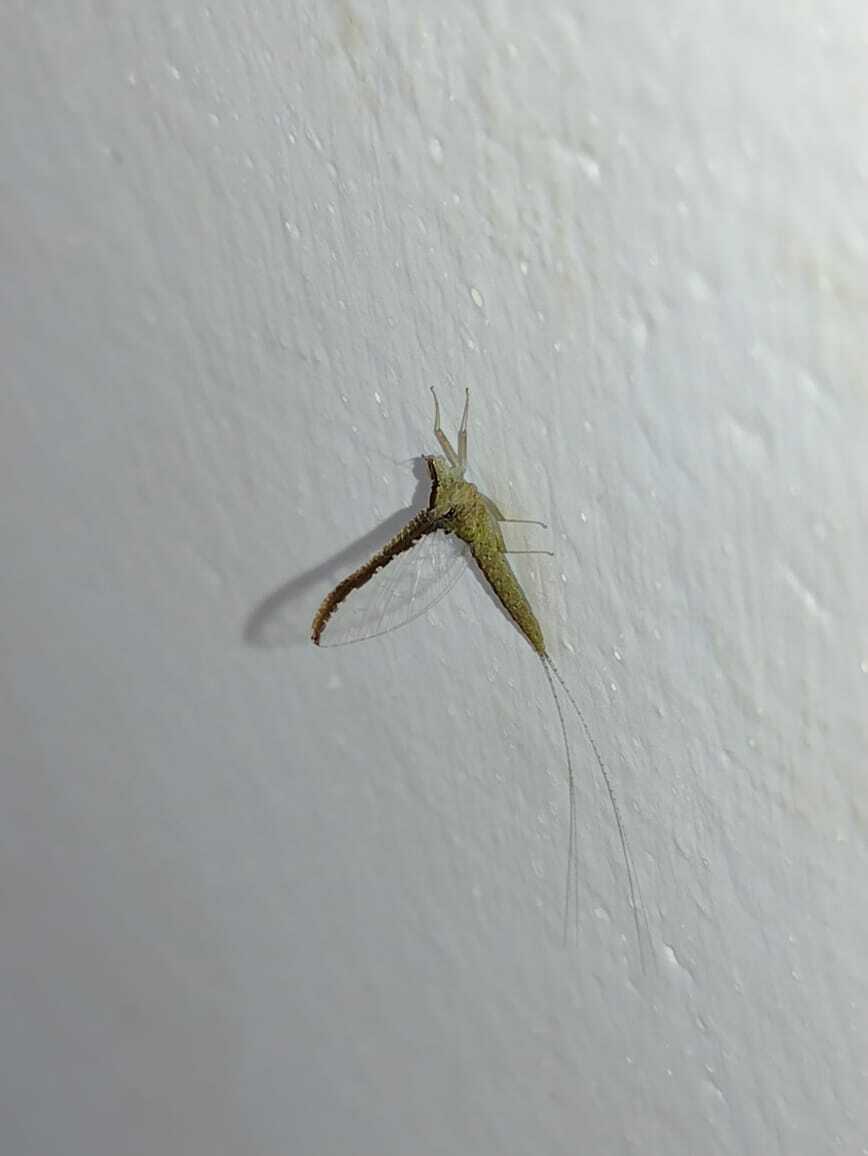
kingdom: Animalia
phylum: Arthropoda
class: Insecta
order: Ephemeroptera
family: Baetidae
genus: Callibaetis
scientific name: Callibaetis pictus
